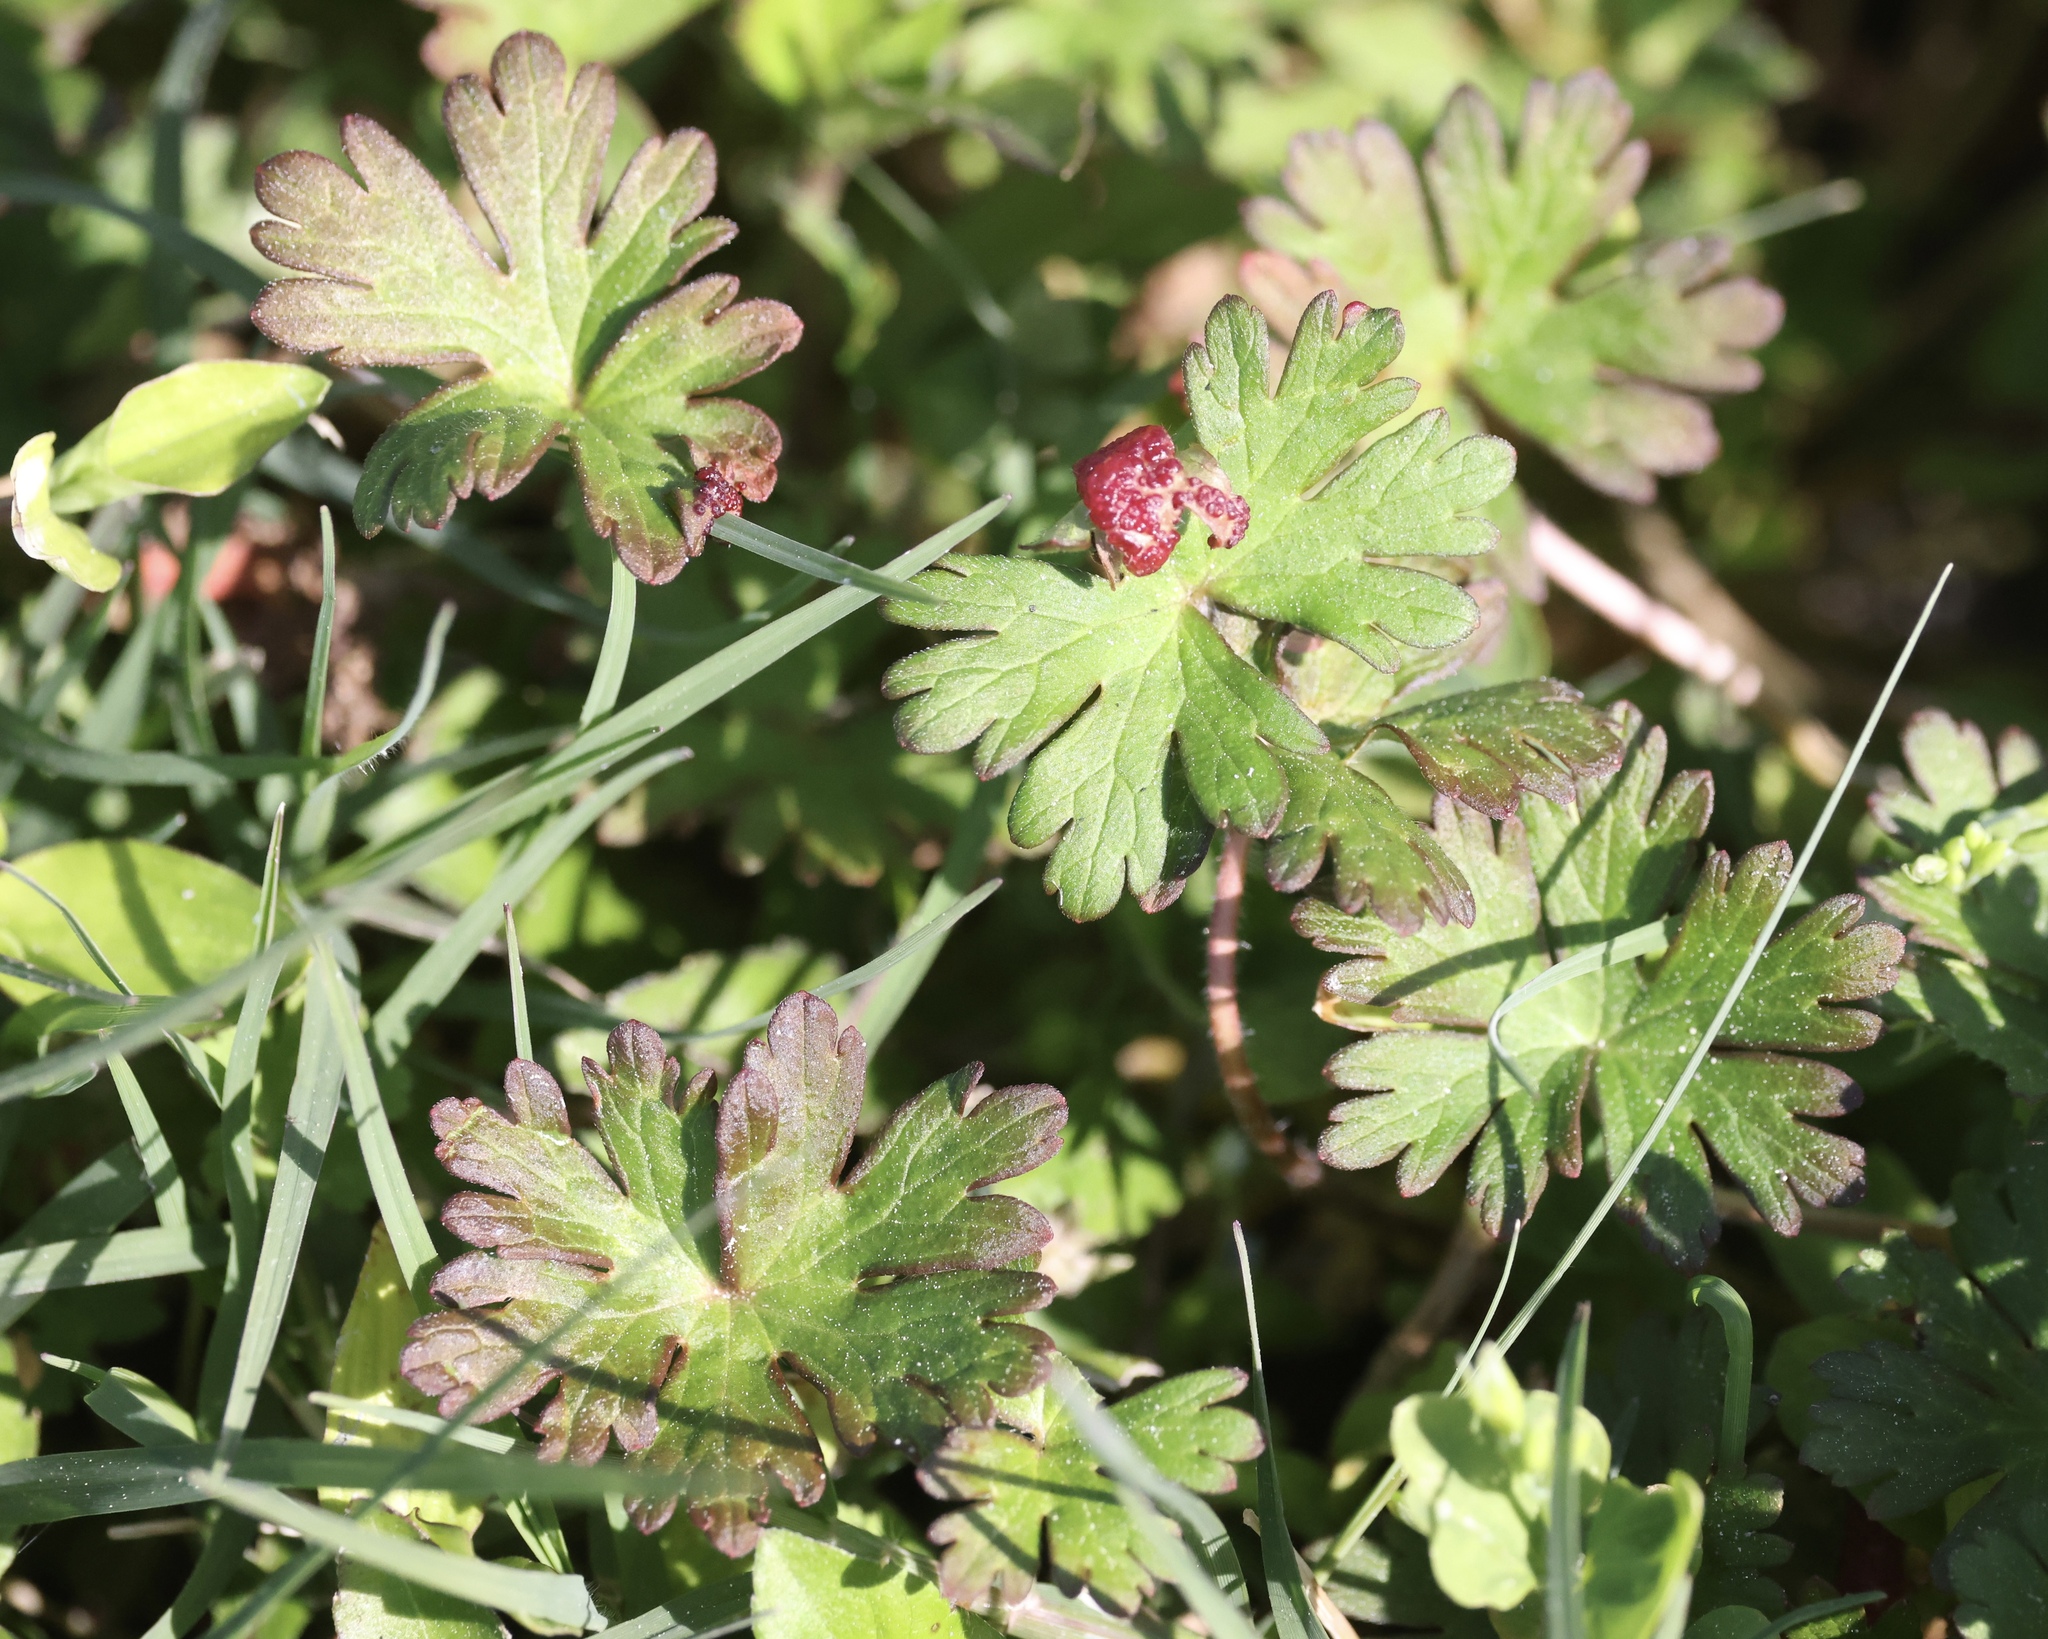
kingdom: Plantae
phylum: Tracheophyta
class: Magnoliopsida
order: Geraniales
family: Geraniaceae
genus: Geranium
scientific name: Geranium carolinianum
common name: Carolina crane's-bill
